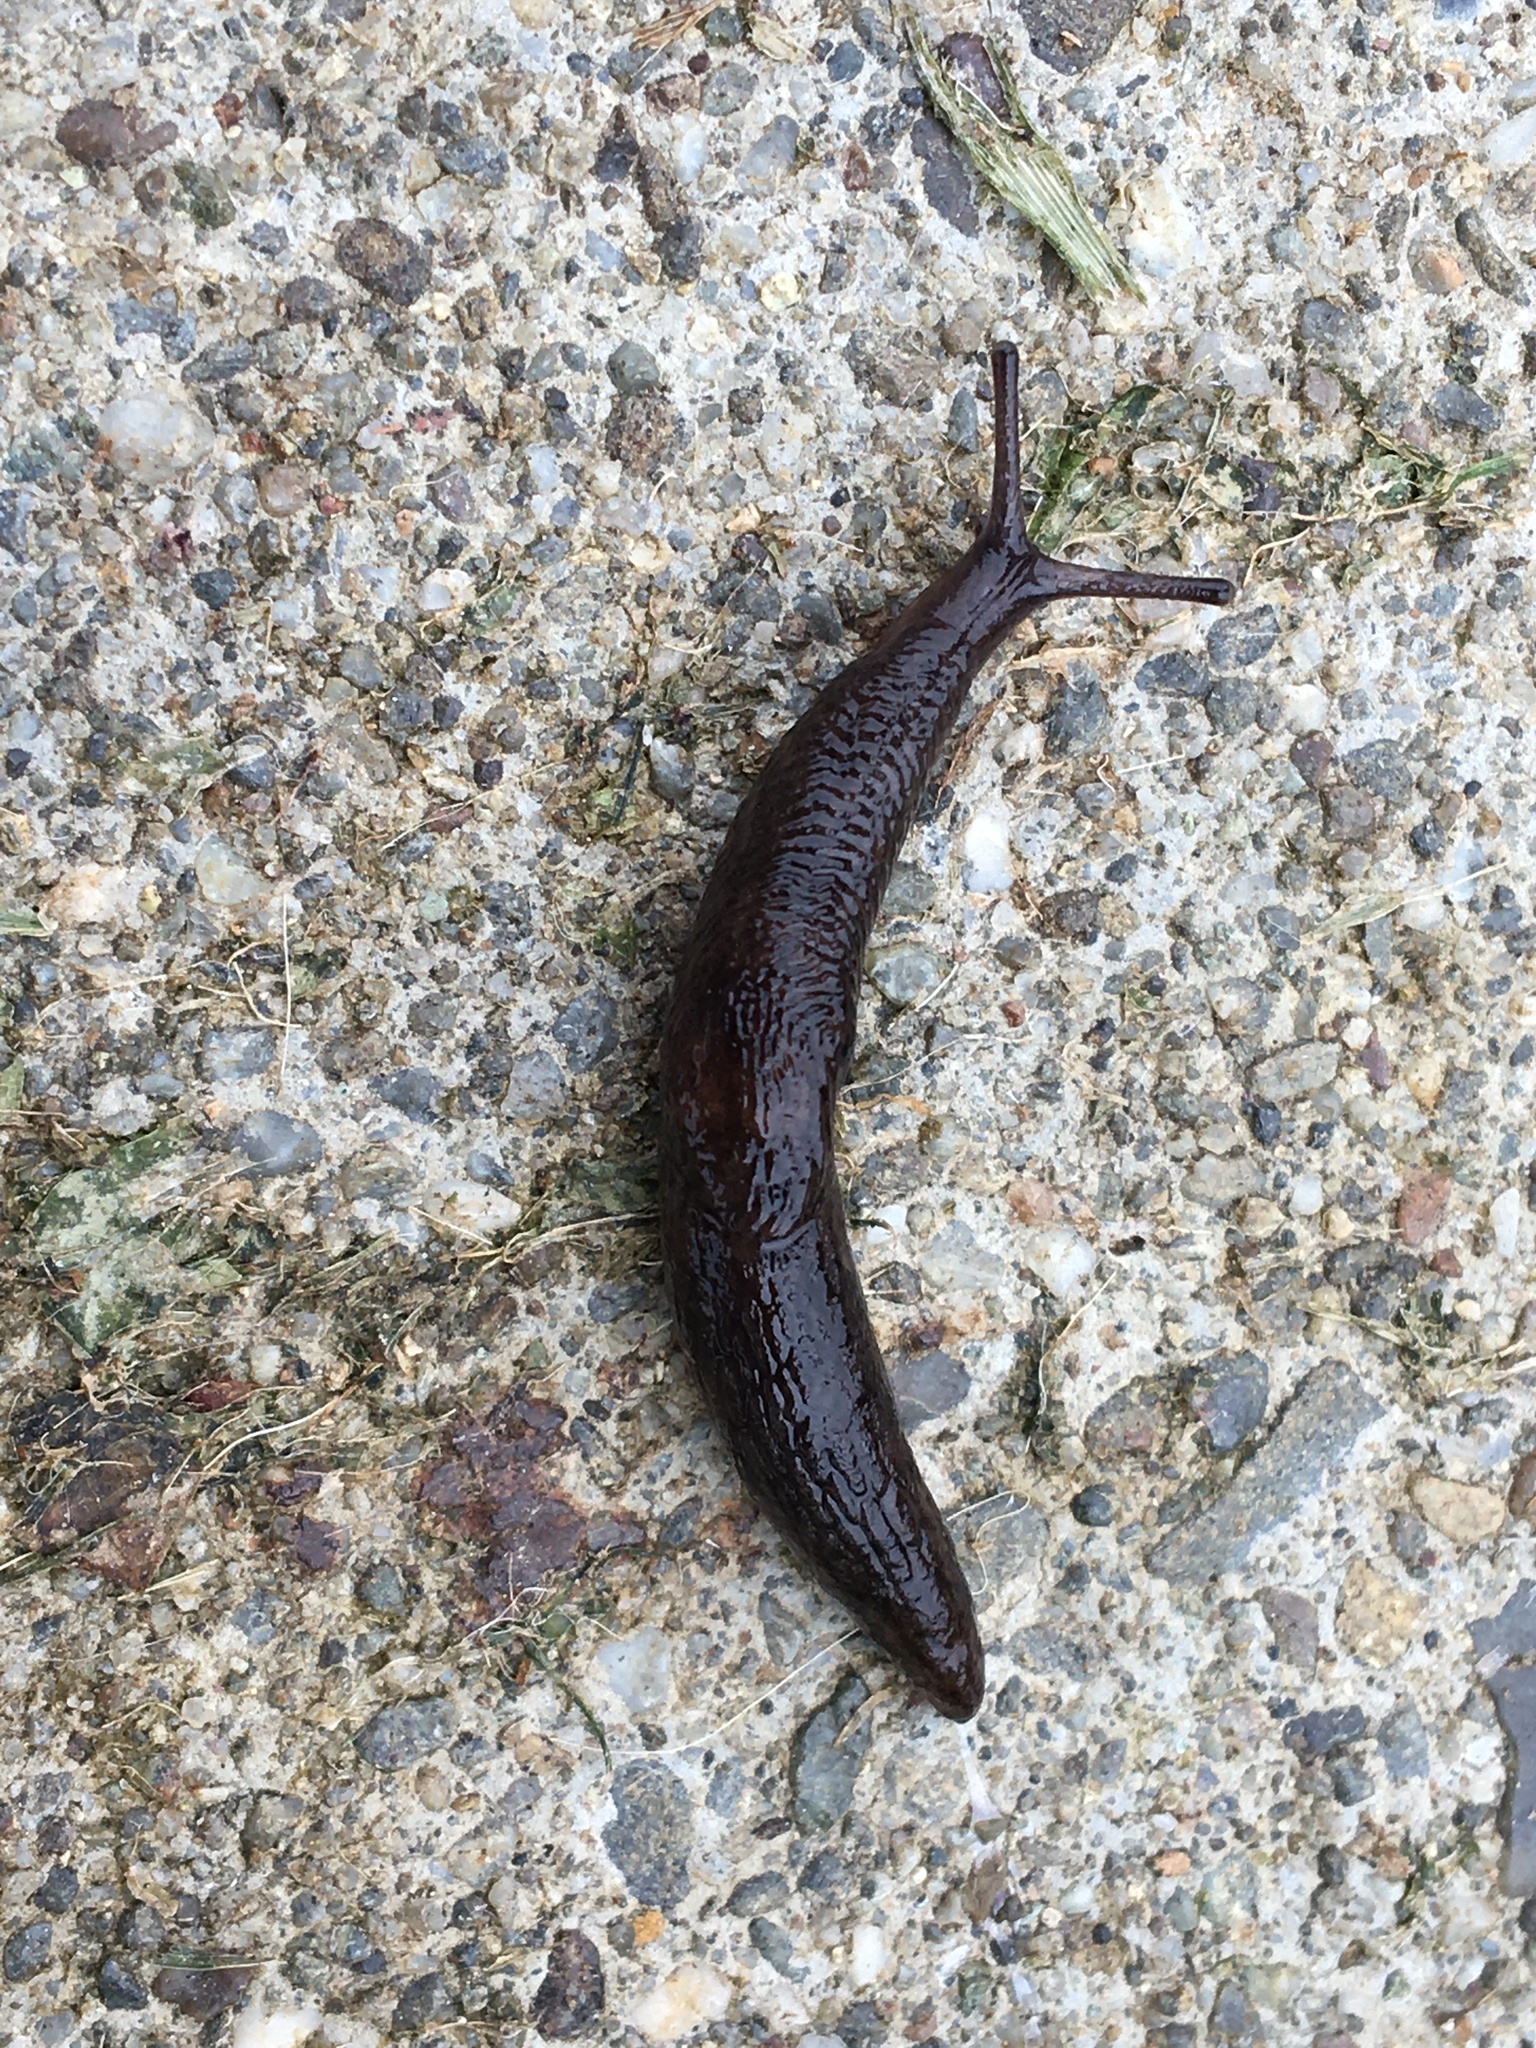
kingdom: Animalia
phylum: Mollusca
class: Gastropoda
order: Stylommatophora
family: Agriolimacidae
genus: Deroceras
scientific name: Deroceras laeve
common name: Marsh slug
